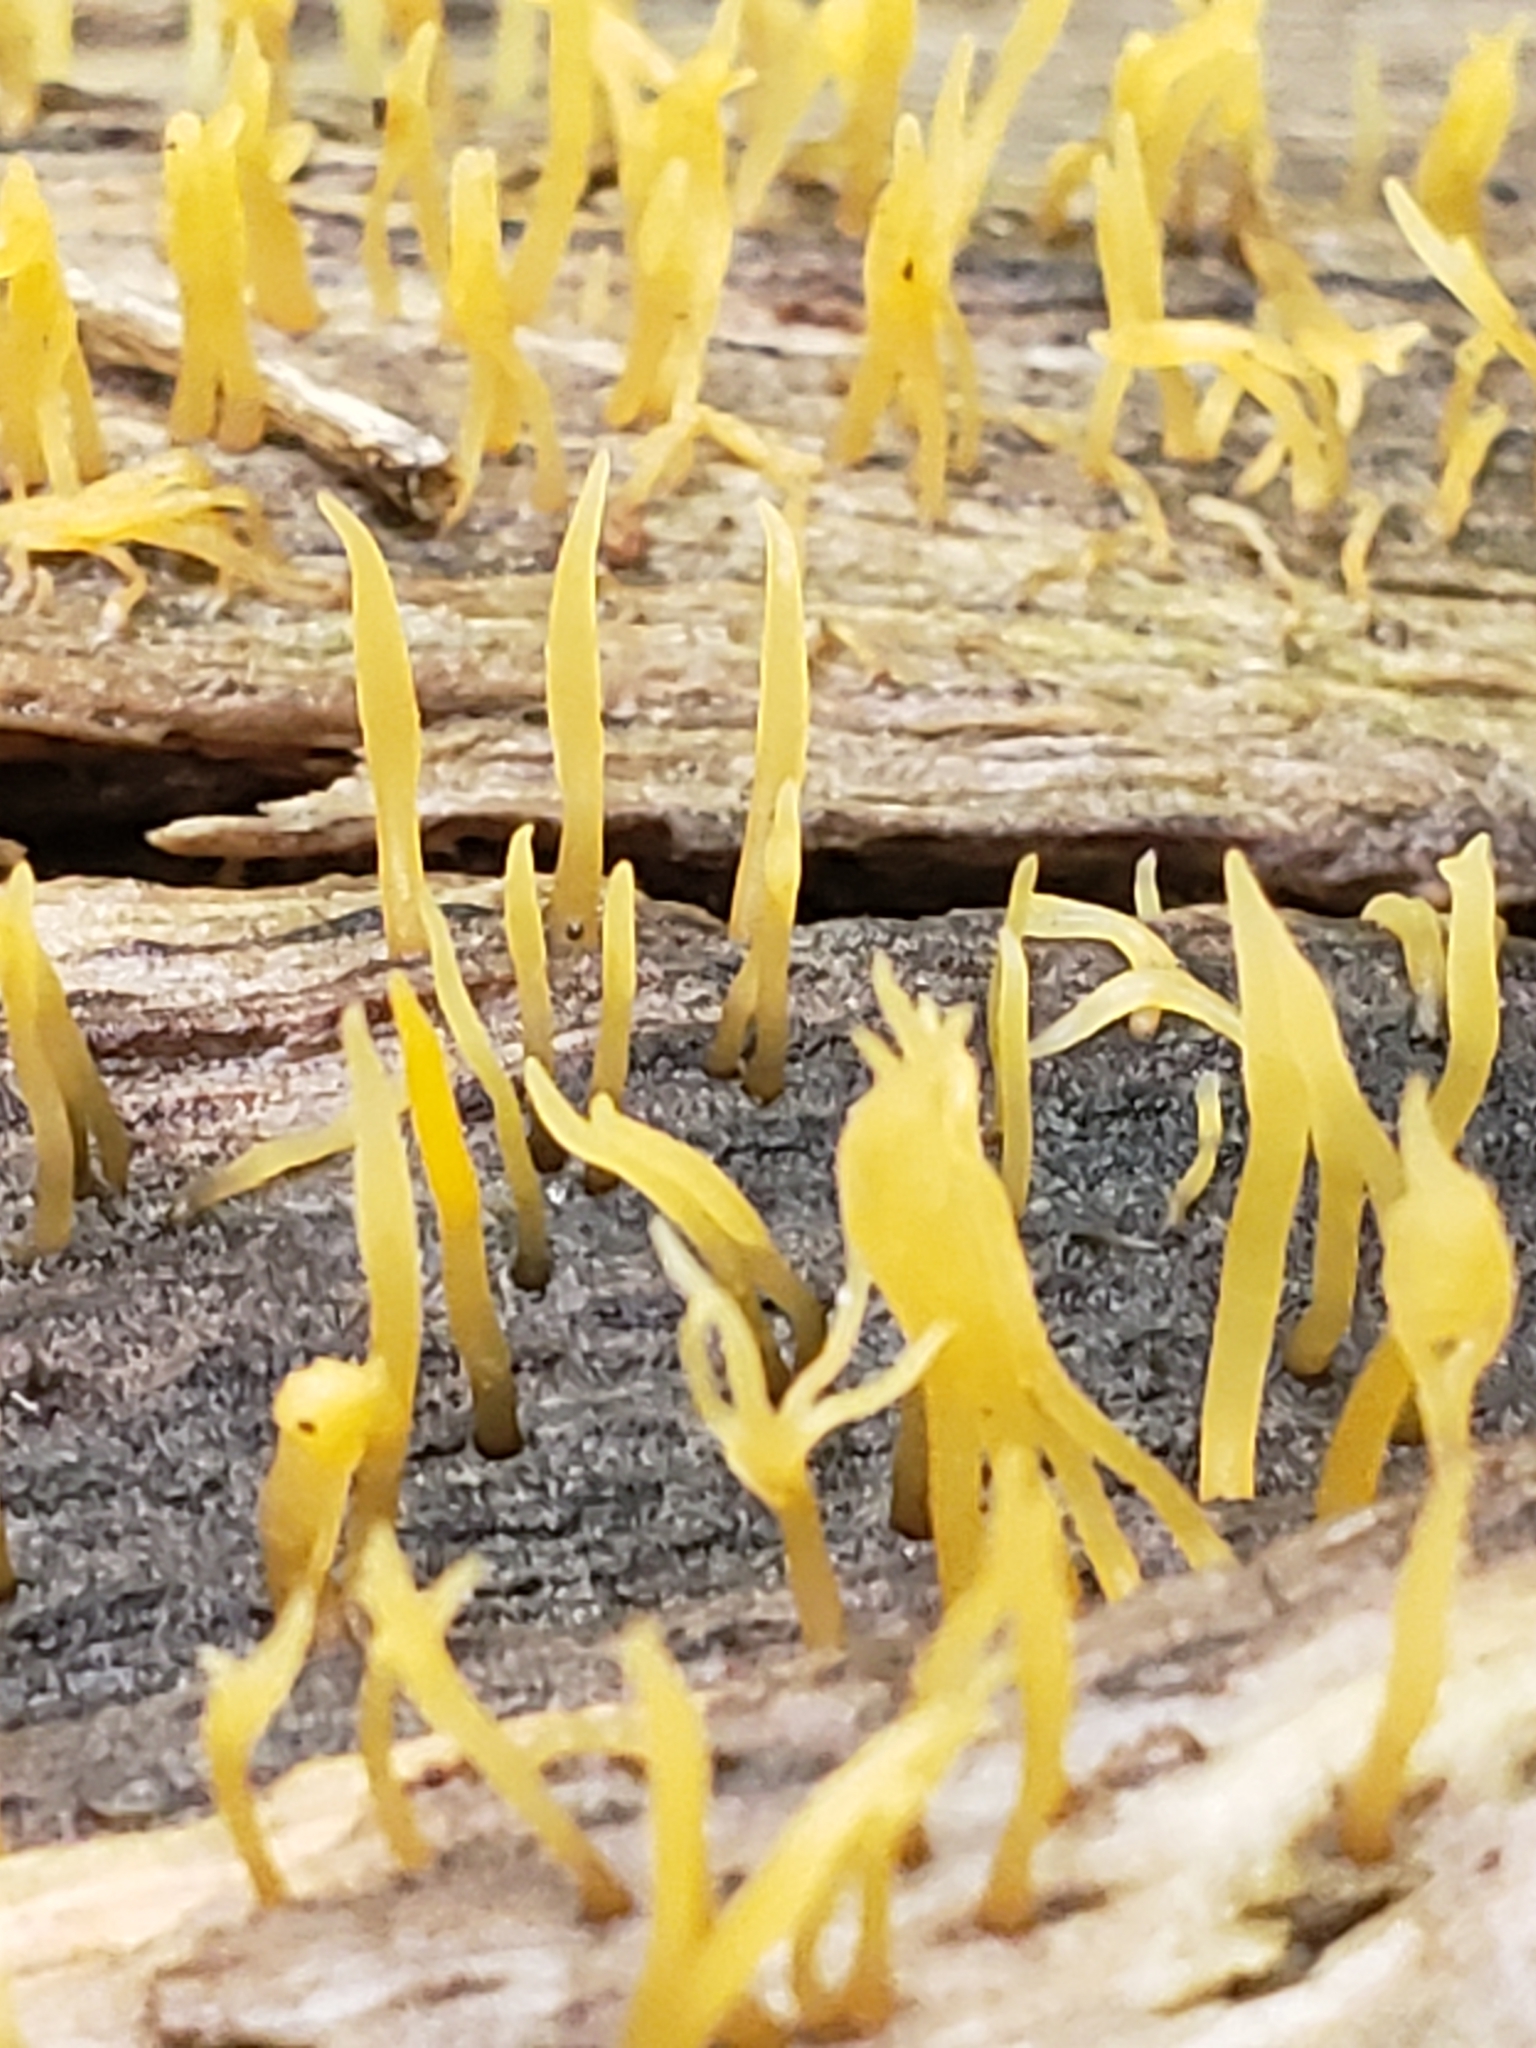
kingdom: Fungi
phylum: Basidiomycota
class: Dacrymycetes
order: Dacrymycetales
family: Dacrymycetaceae
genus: Calocera
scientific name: Calocera cornea
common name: Small stagshorn
